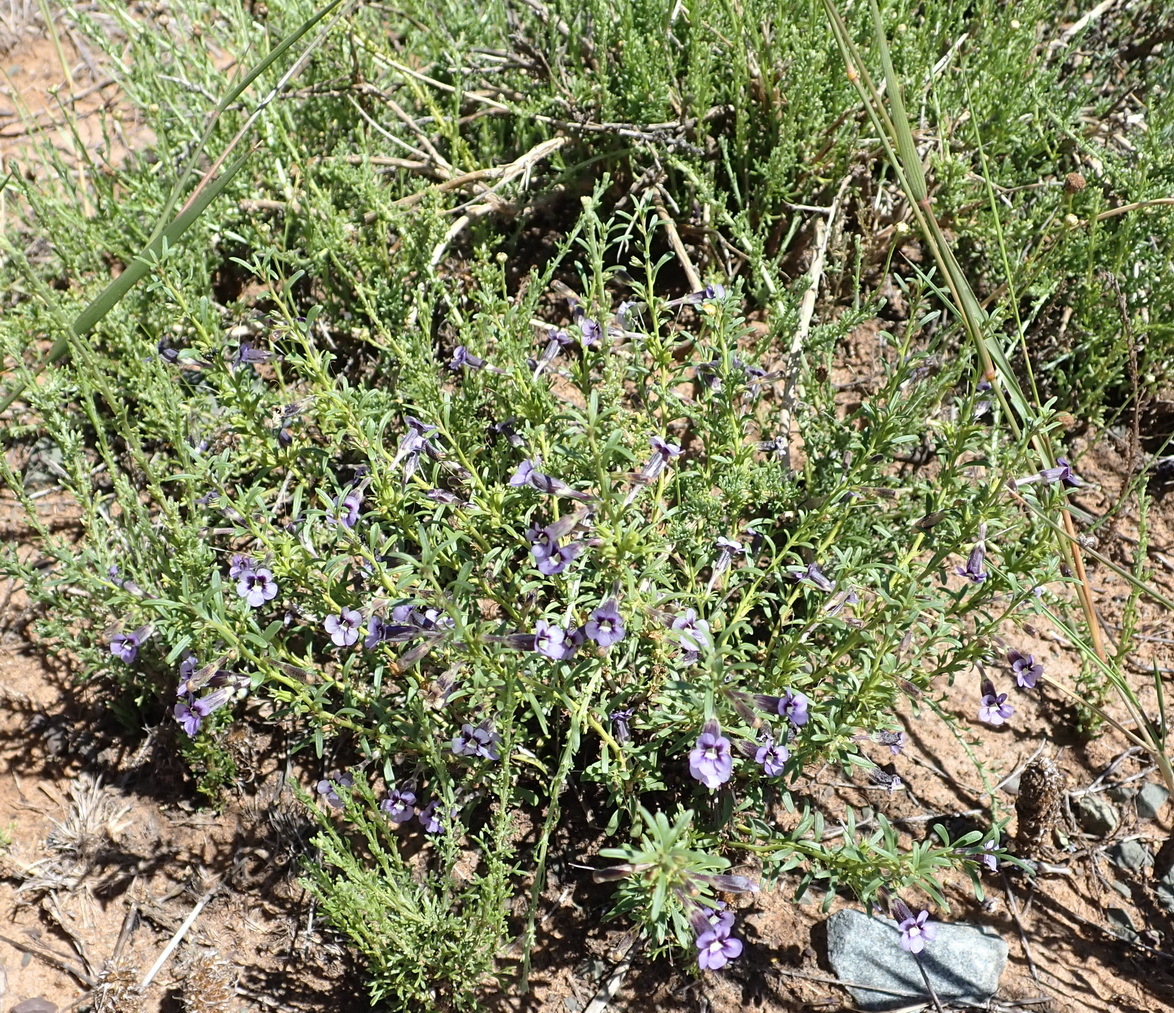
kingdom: Plantae
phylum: Tracheophyta
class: Magnoliopsida
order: Lamiales
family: Scrophulariaceae
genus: Peliostomum
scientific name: Peliostomum leucorrhizum
